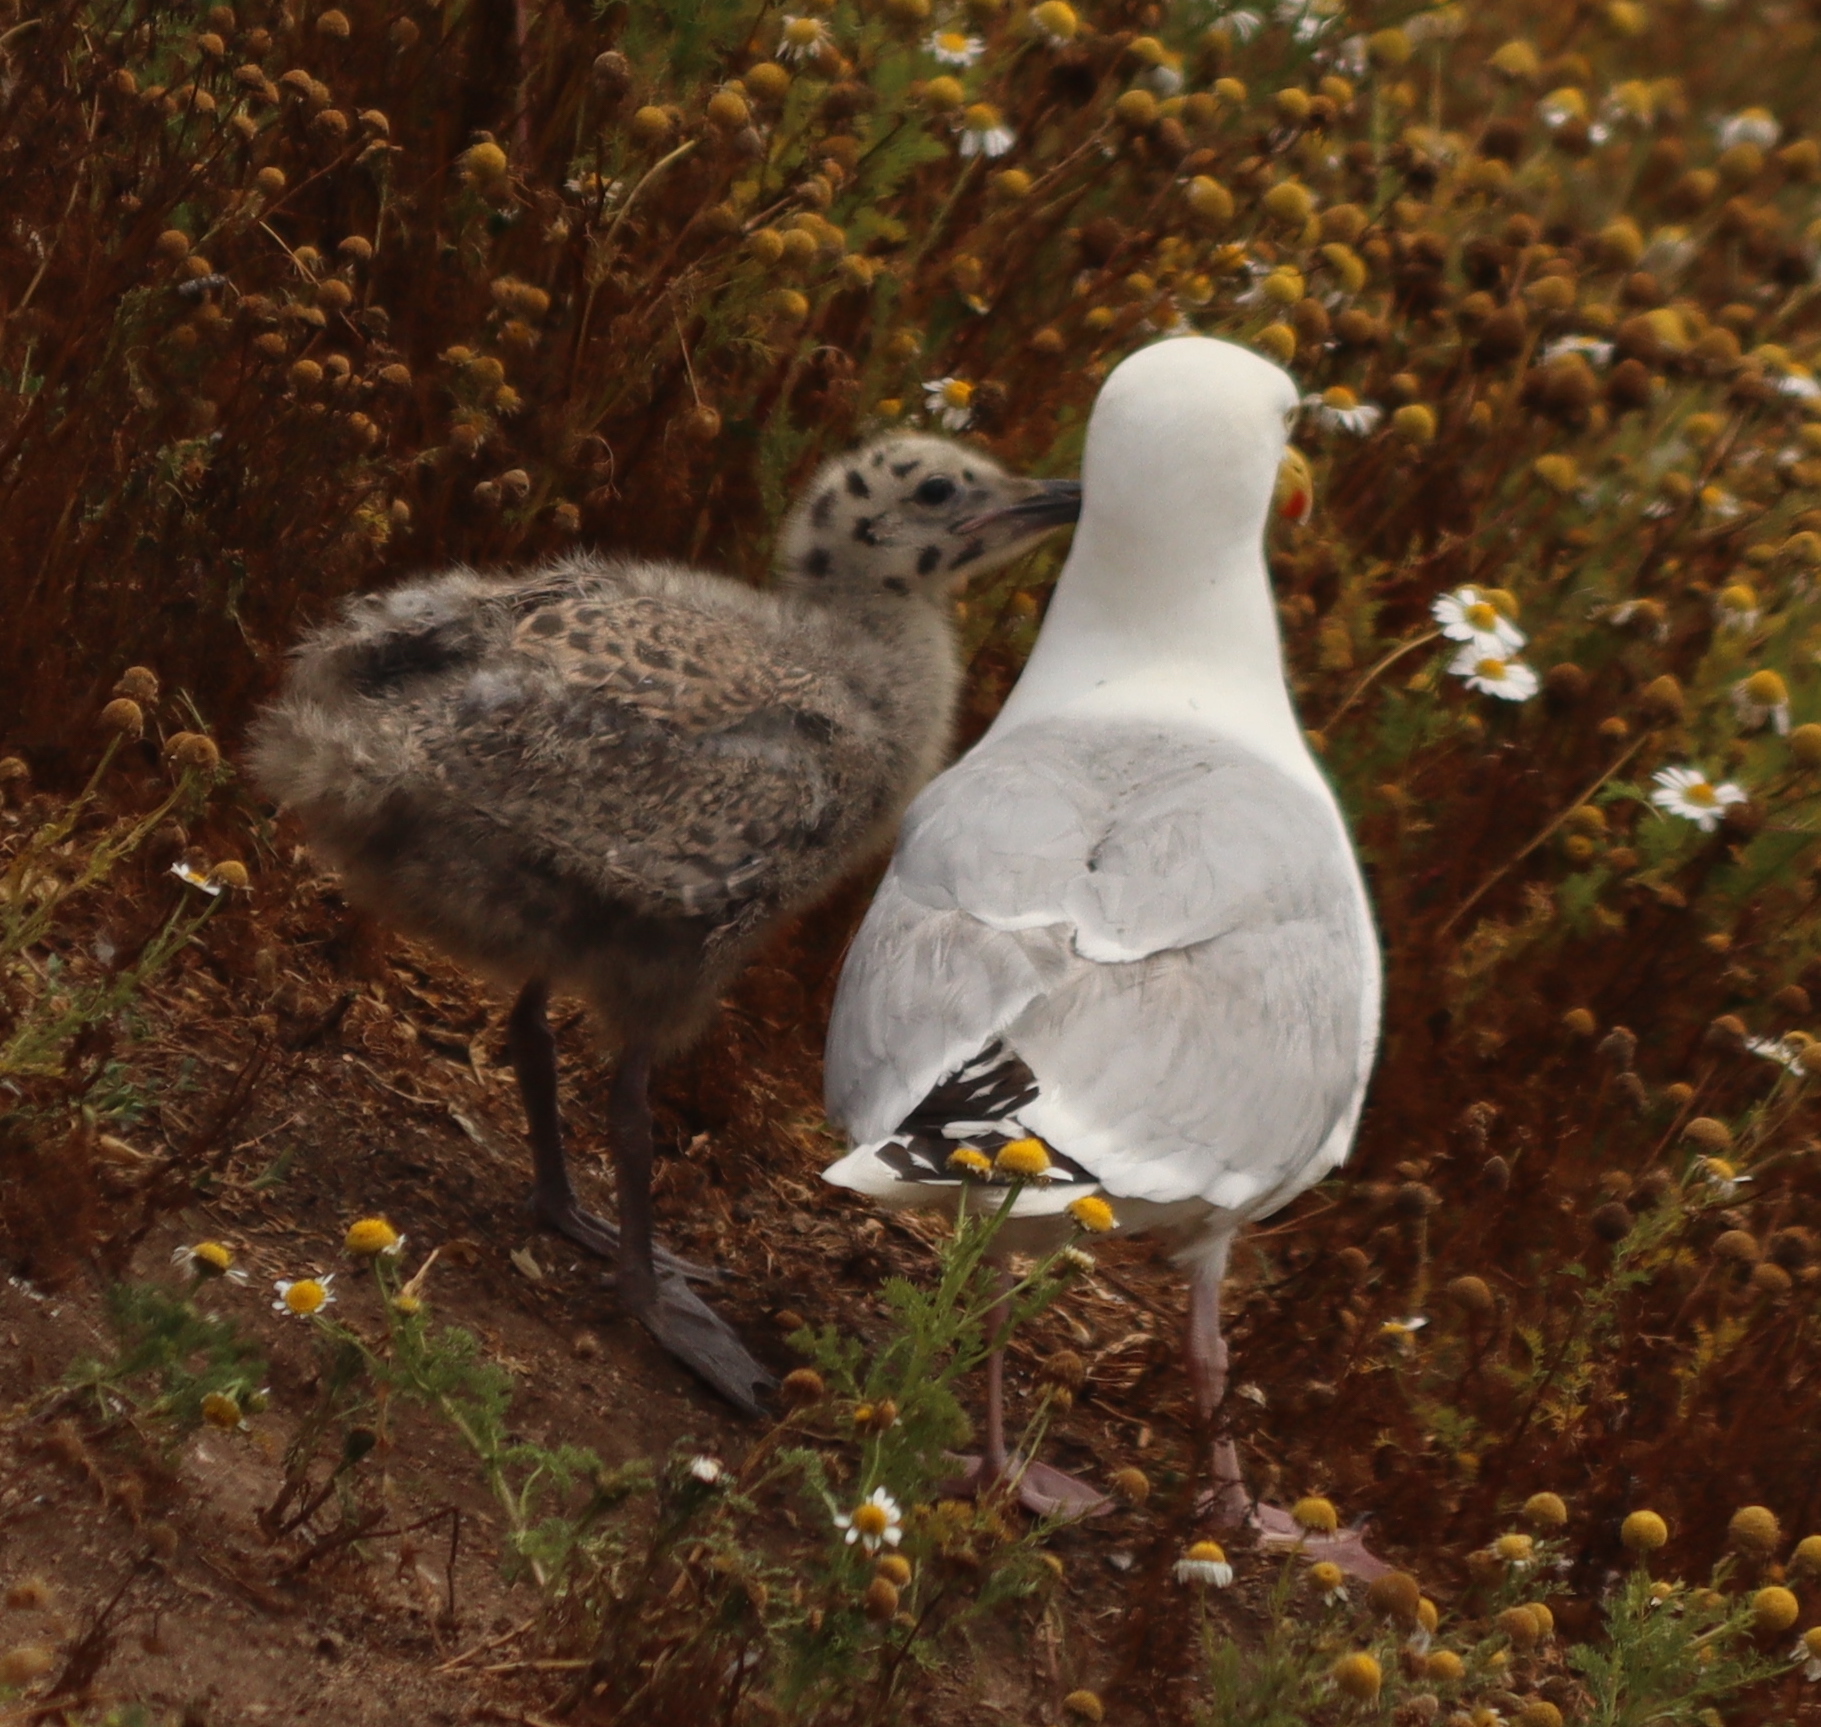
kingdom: Animalia
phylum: Chordata
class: Aves
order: Charadriiformes
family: Laridae
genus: Larus
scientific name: Larus argentatus
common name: Herring gull
